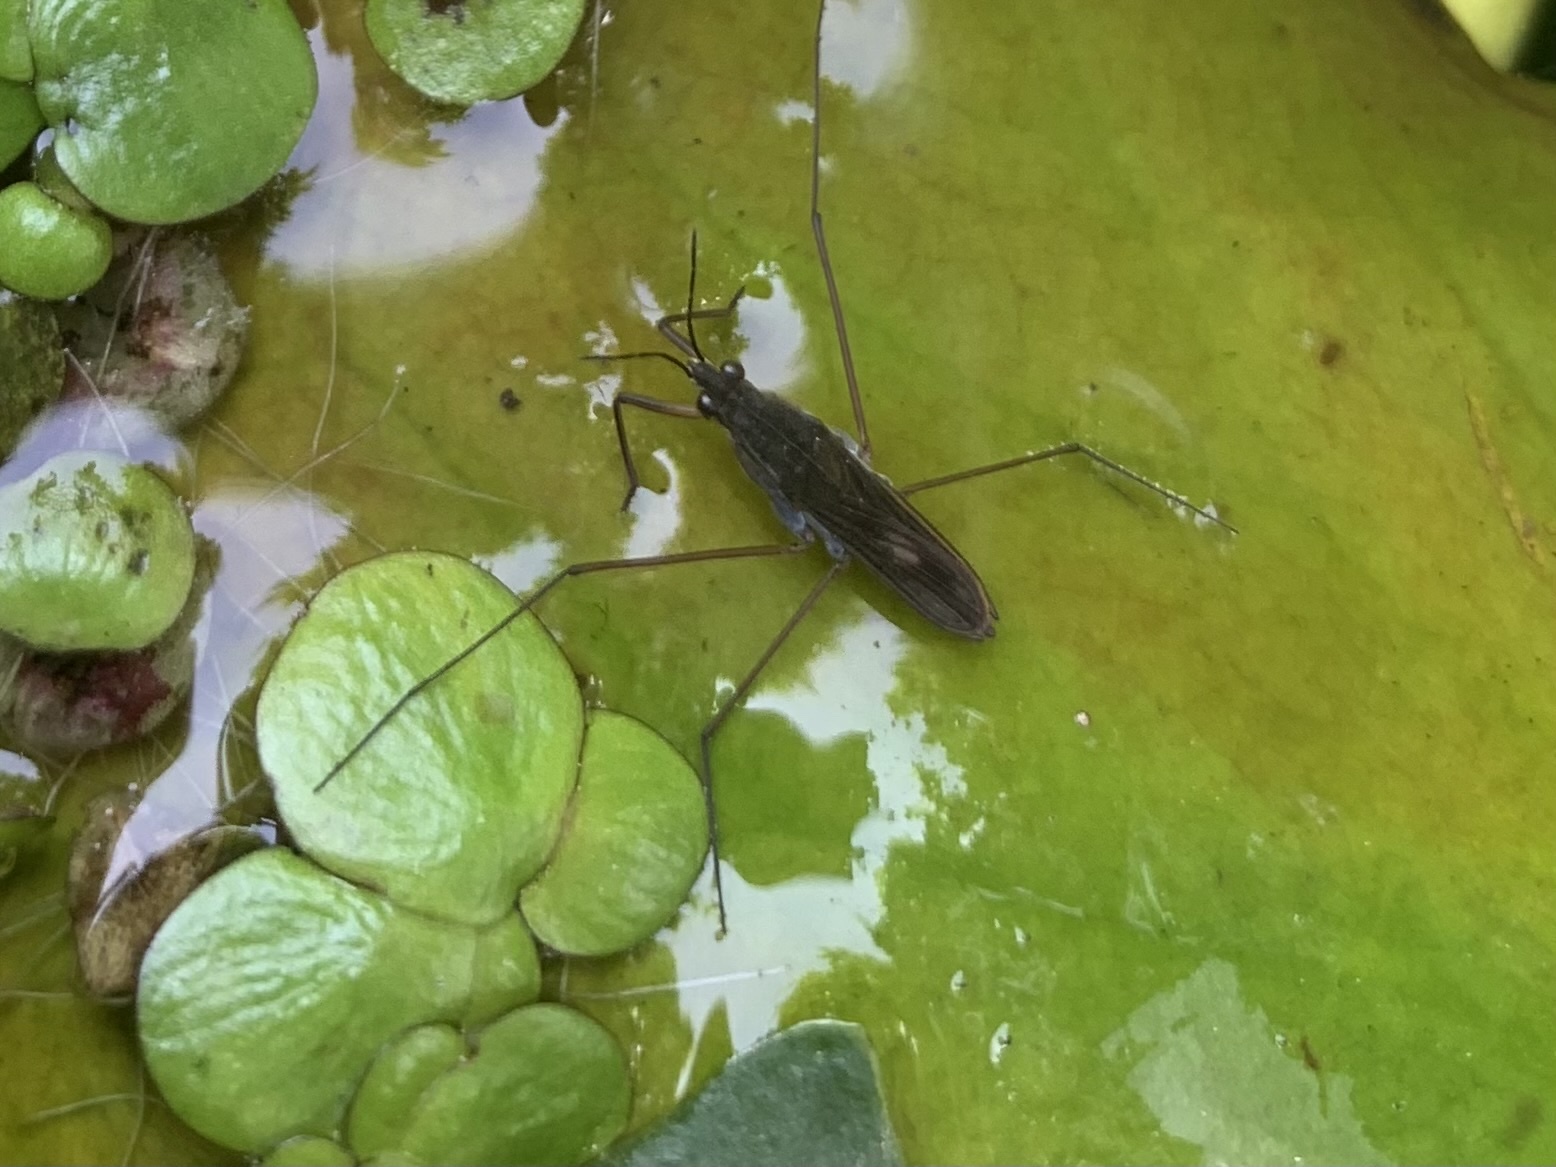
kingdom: Animalia
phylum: Arthropoda
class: Insecta
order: Hemiptera
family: Gerridae
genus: Gerris
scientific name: Gerris
